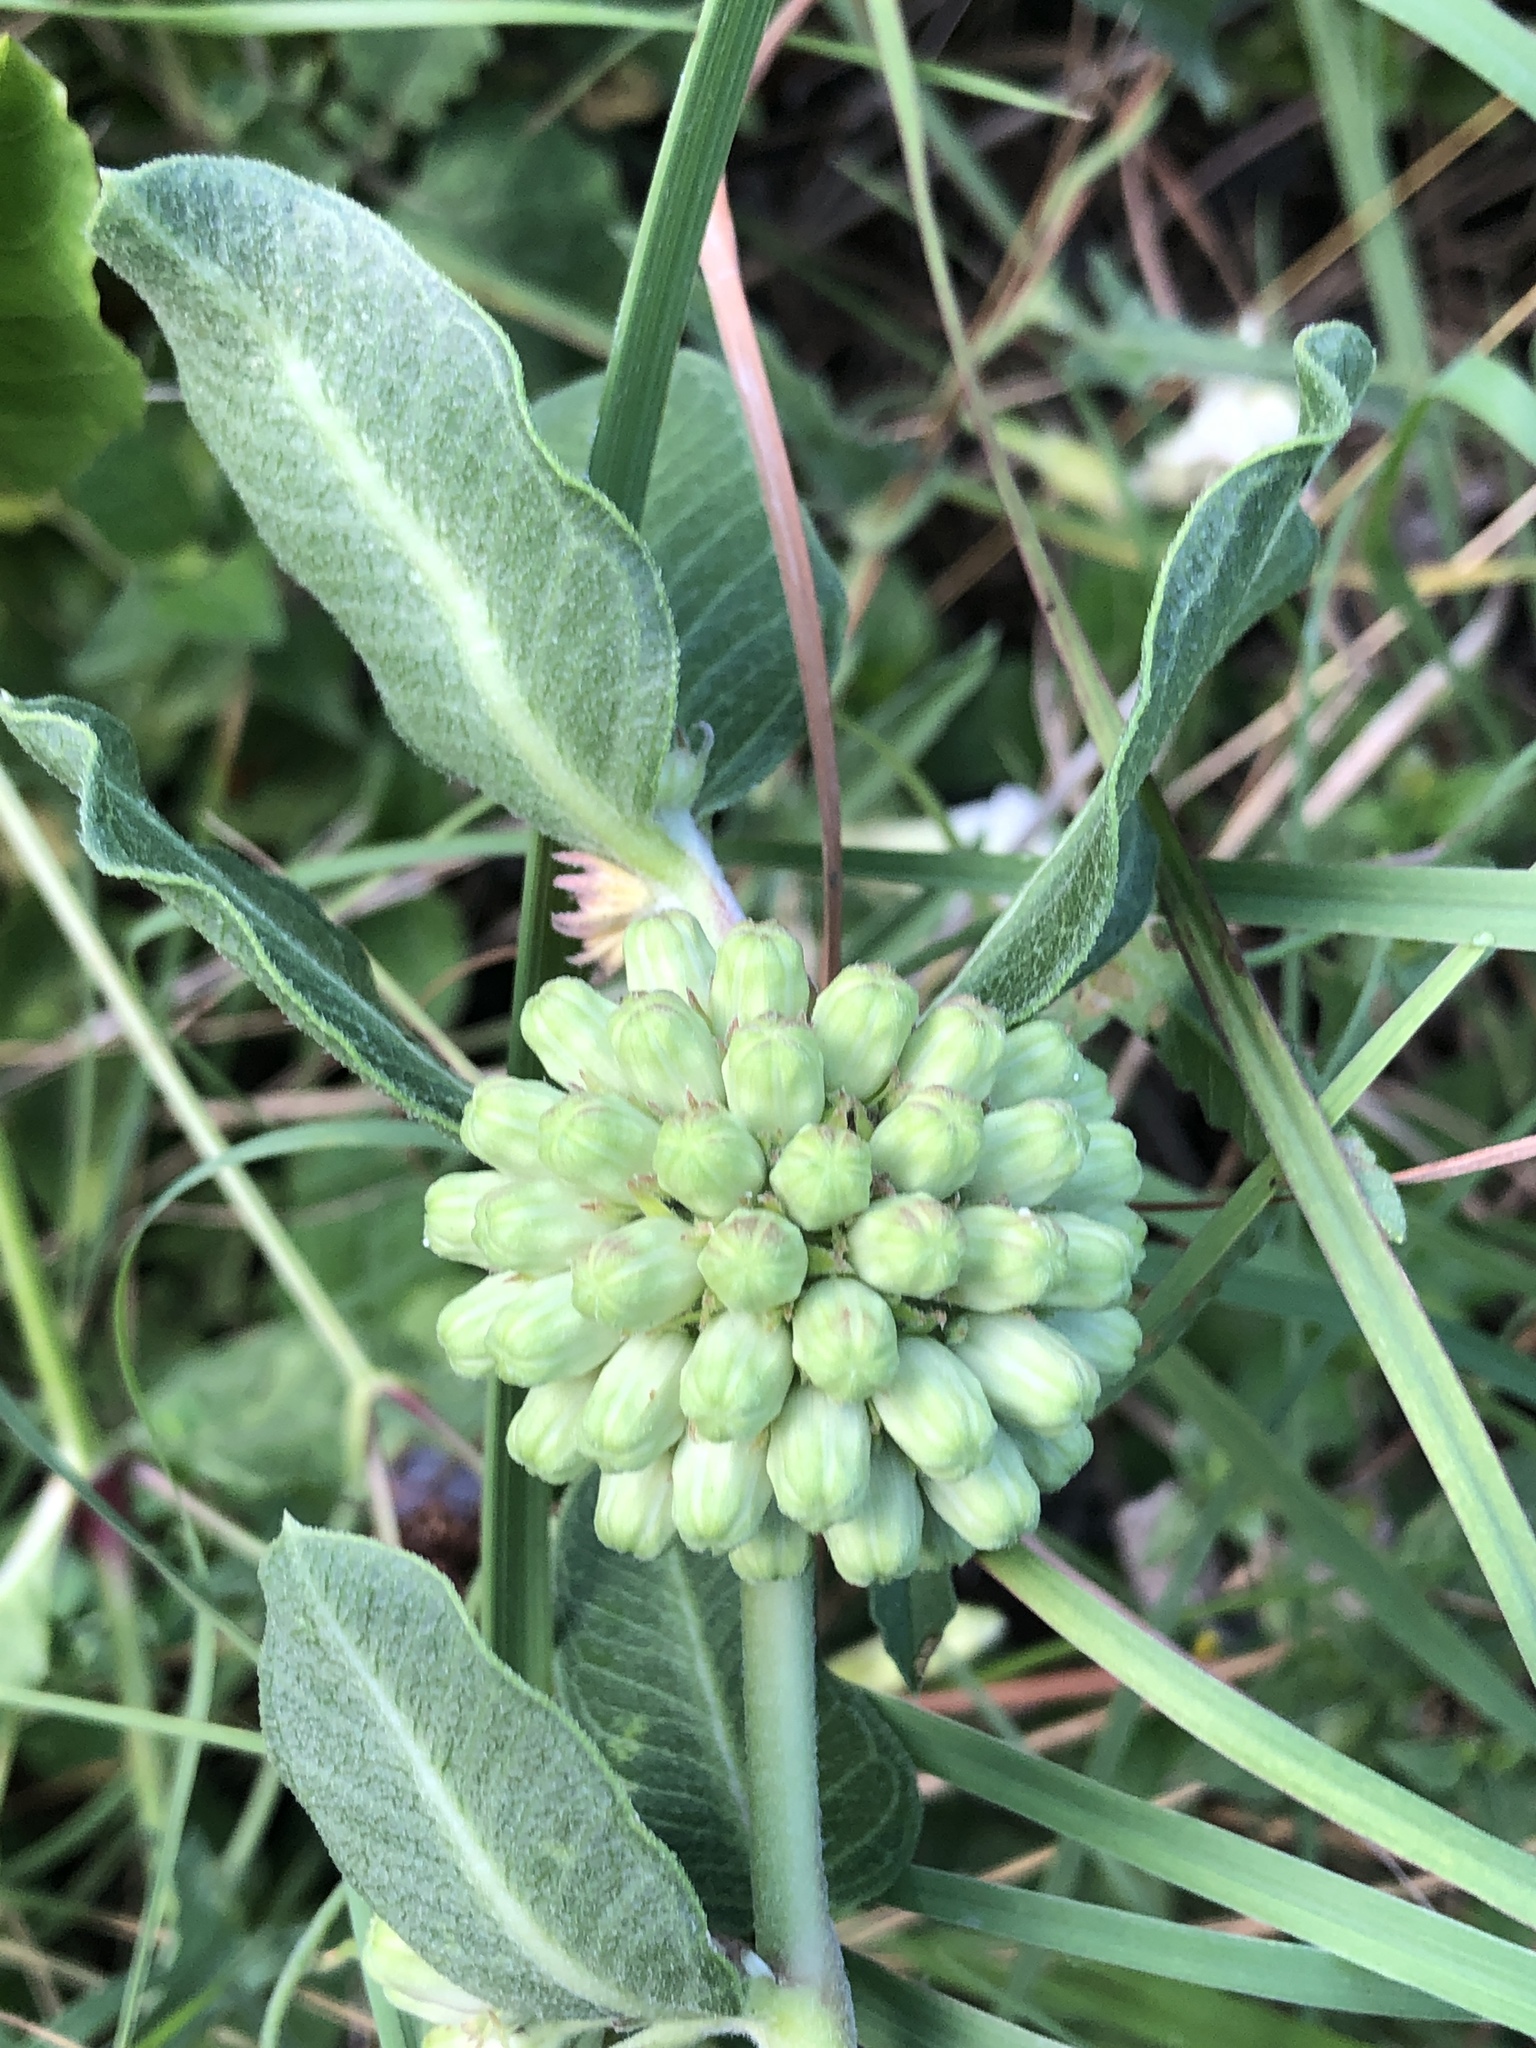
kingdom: Plantae
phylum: Tracheophyta
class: Magnoliopsida
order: Gentianales
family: Apocynaceae
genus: Asclepias
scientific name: Asclepias viridiflora
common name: Green comet milkweed
